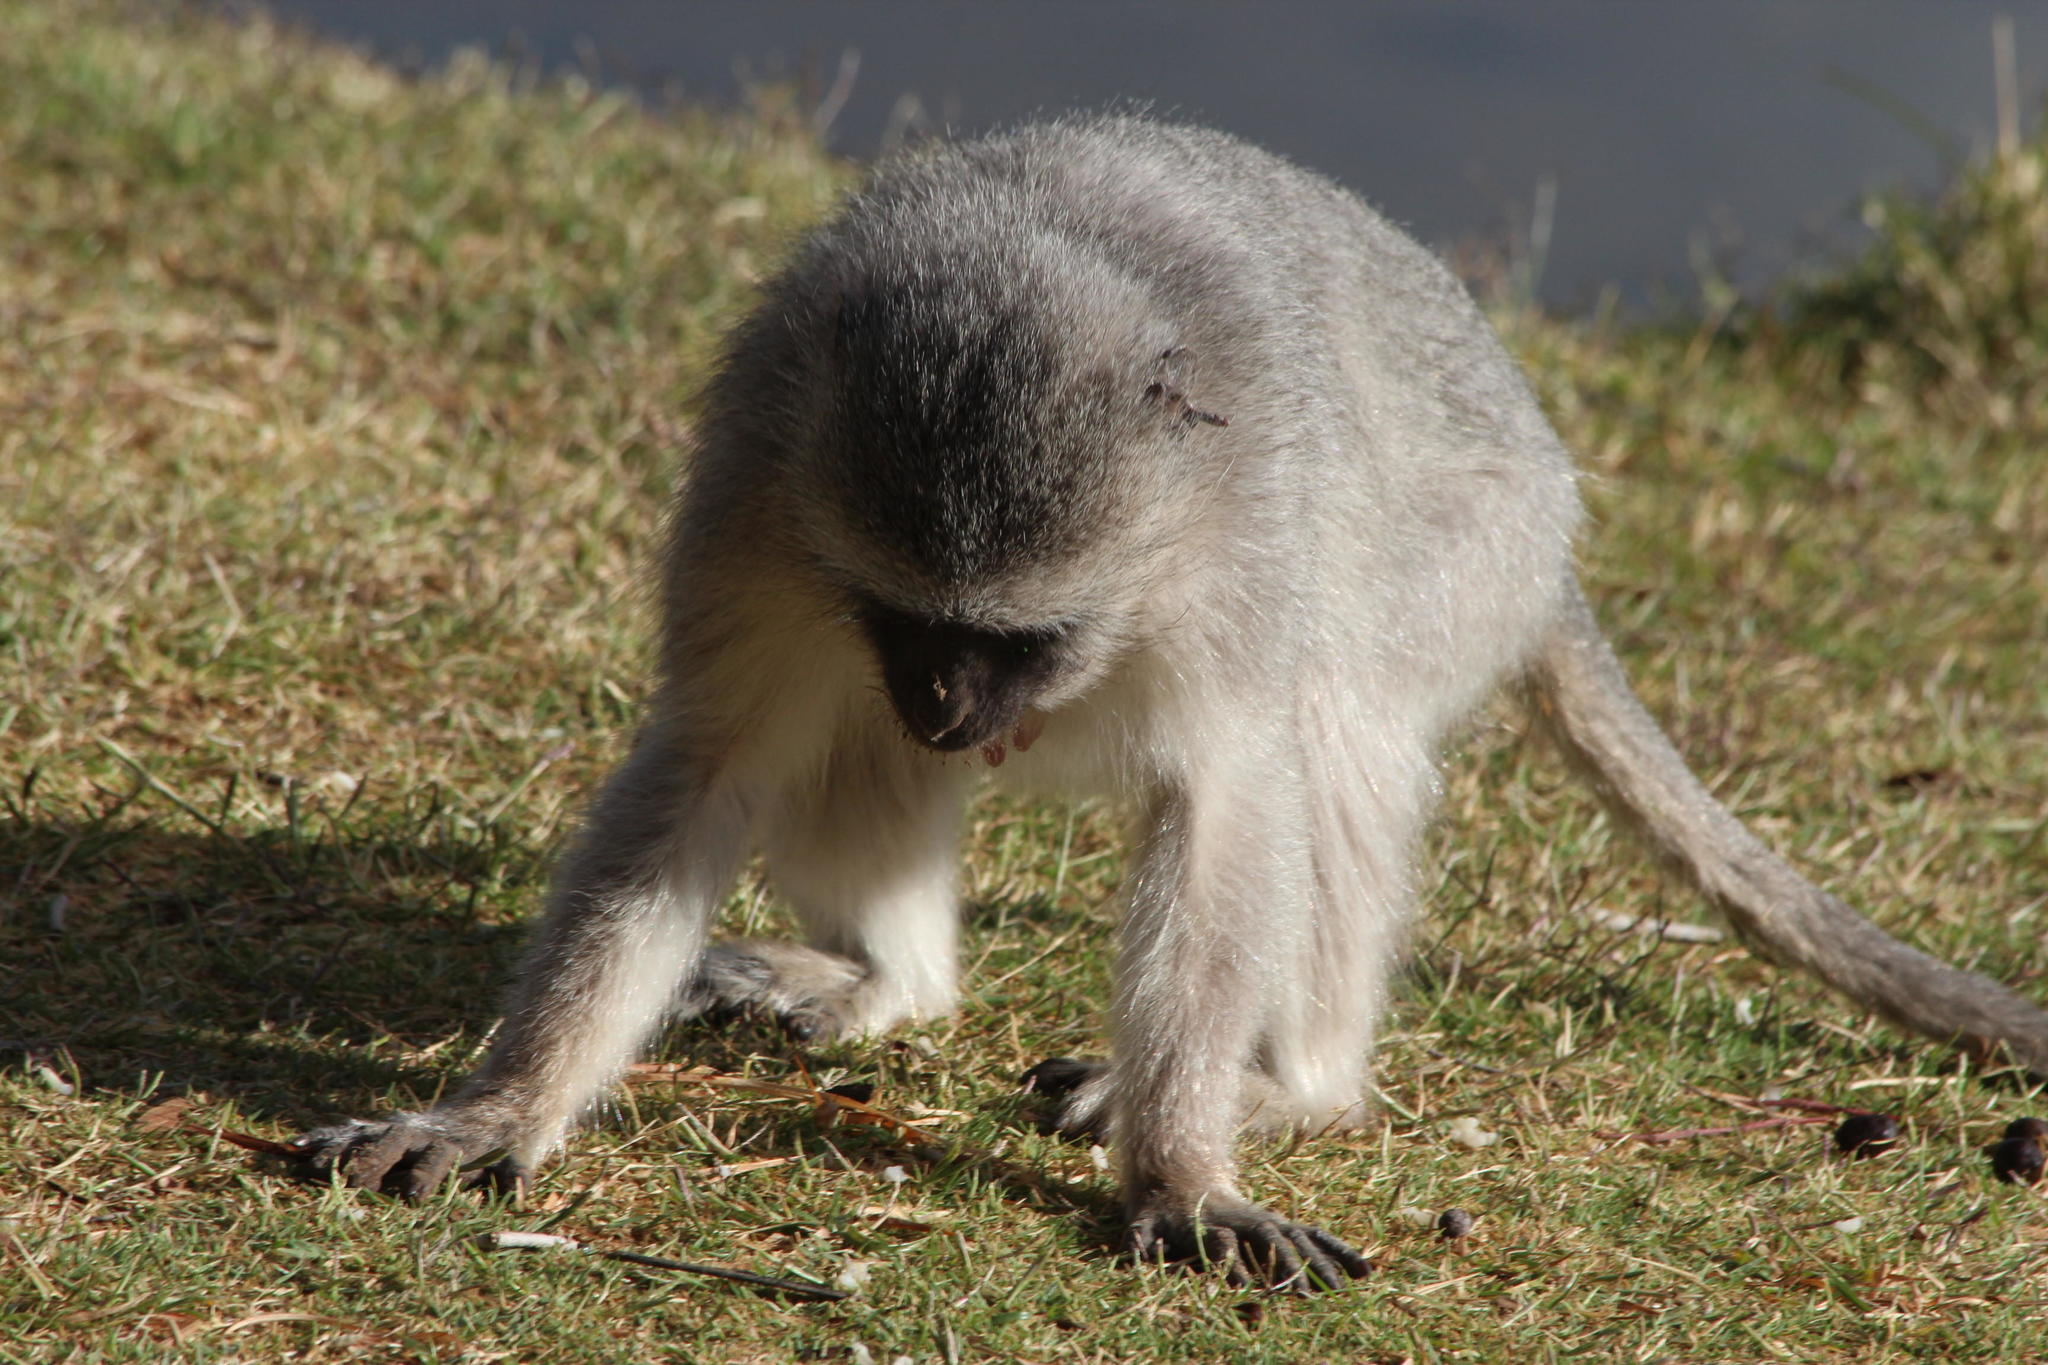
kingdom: Animalia
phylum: Chordata
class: Mammalia
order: Primates
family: Cercopithecidae
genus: Chlorocebus
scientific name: Chlorocebus pygerythrus
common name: Vervet monkey
